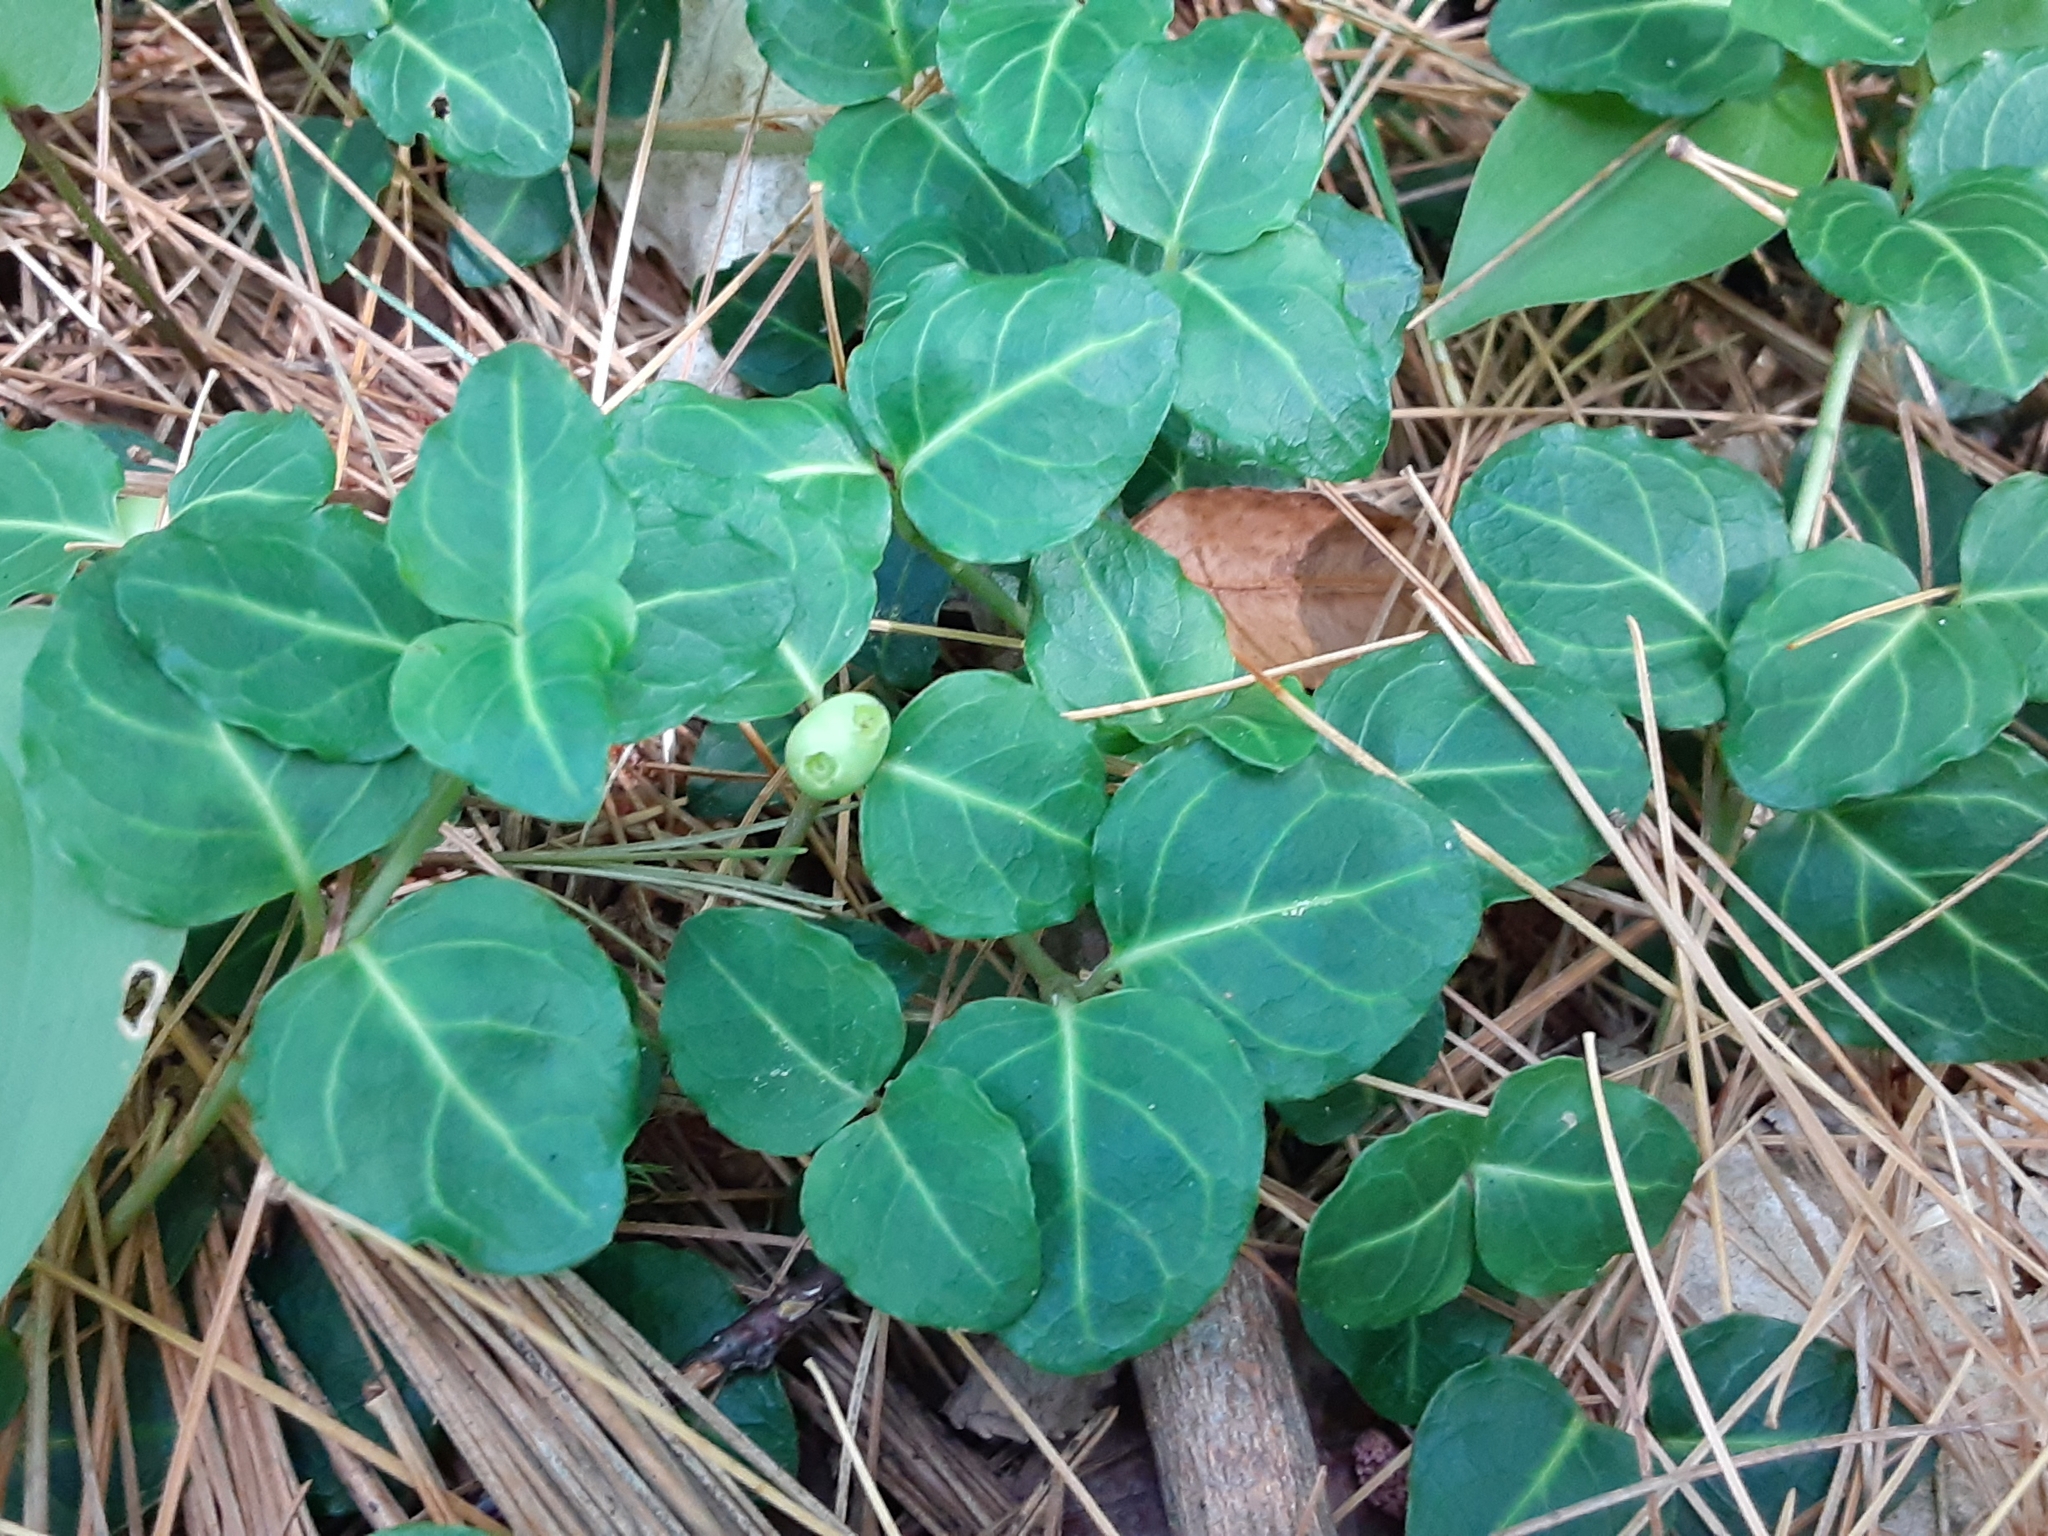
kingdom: Plantae
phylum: Tracheophyta
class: Magnoliopsida
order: Gentianales
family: Rubiaceae
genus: Mitchella
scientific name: Mitchella repens
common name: Partridge-berry
